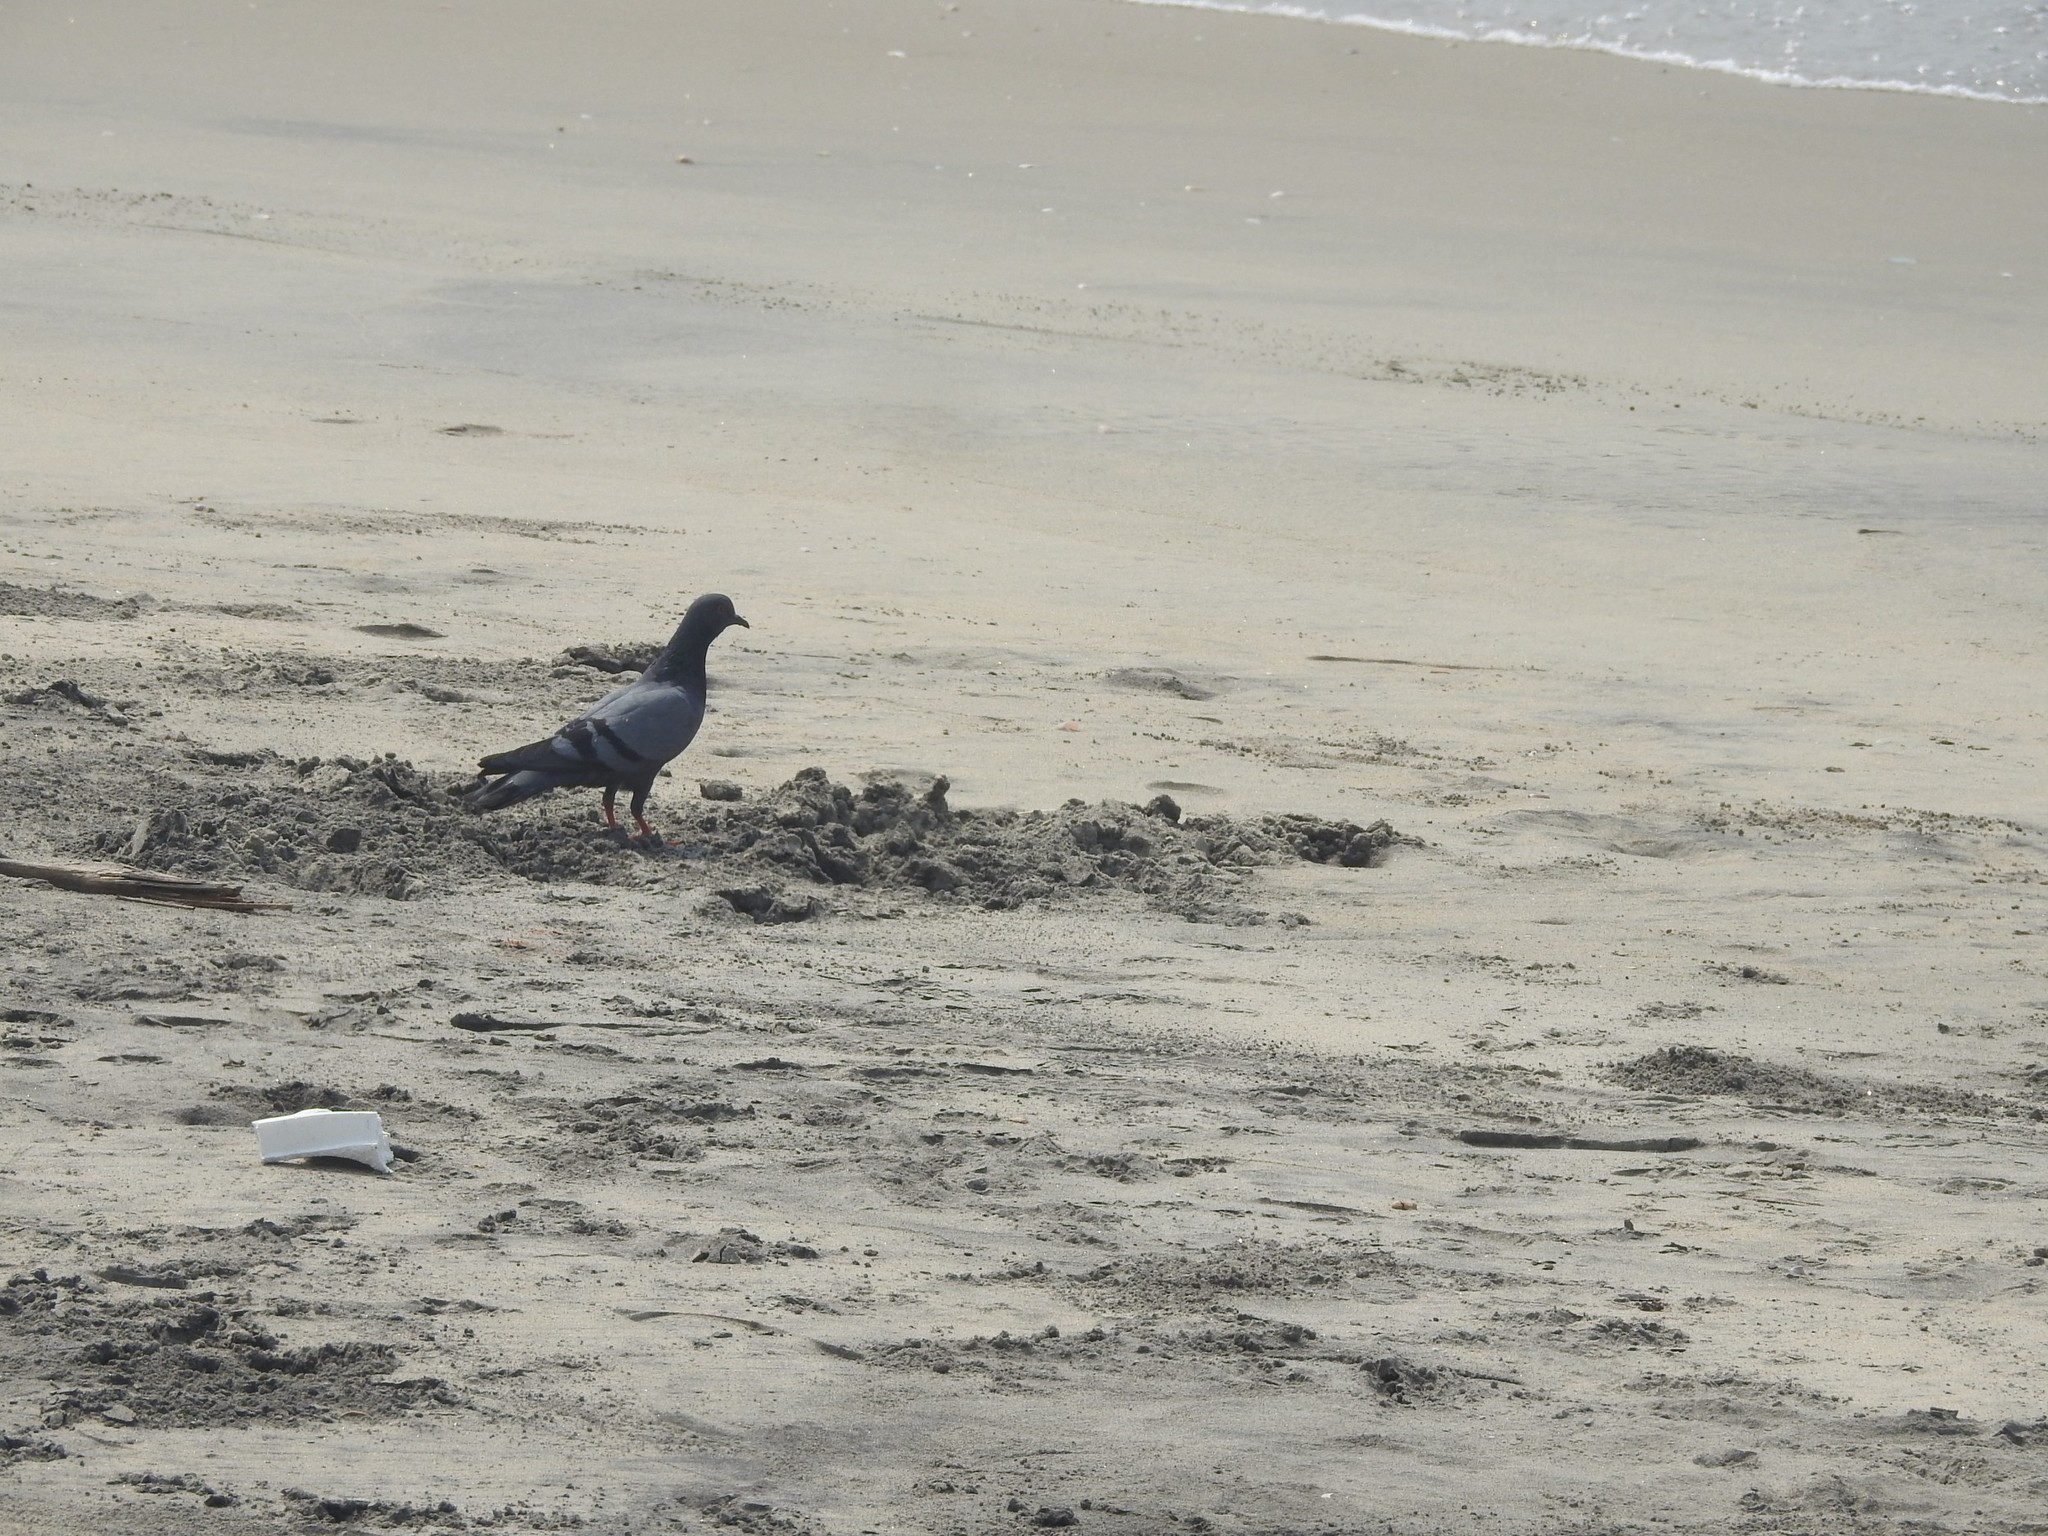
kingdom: Animalia
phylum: Chordata
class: Aves
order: Columbiformes
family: Columbidae
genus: Columba
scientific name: Columba livia
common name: Rock pigeon
